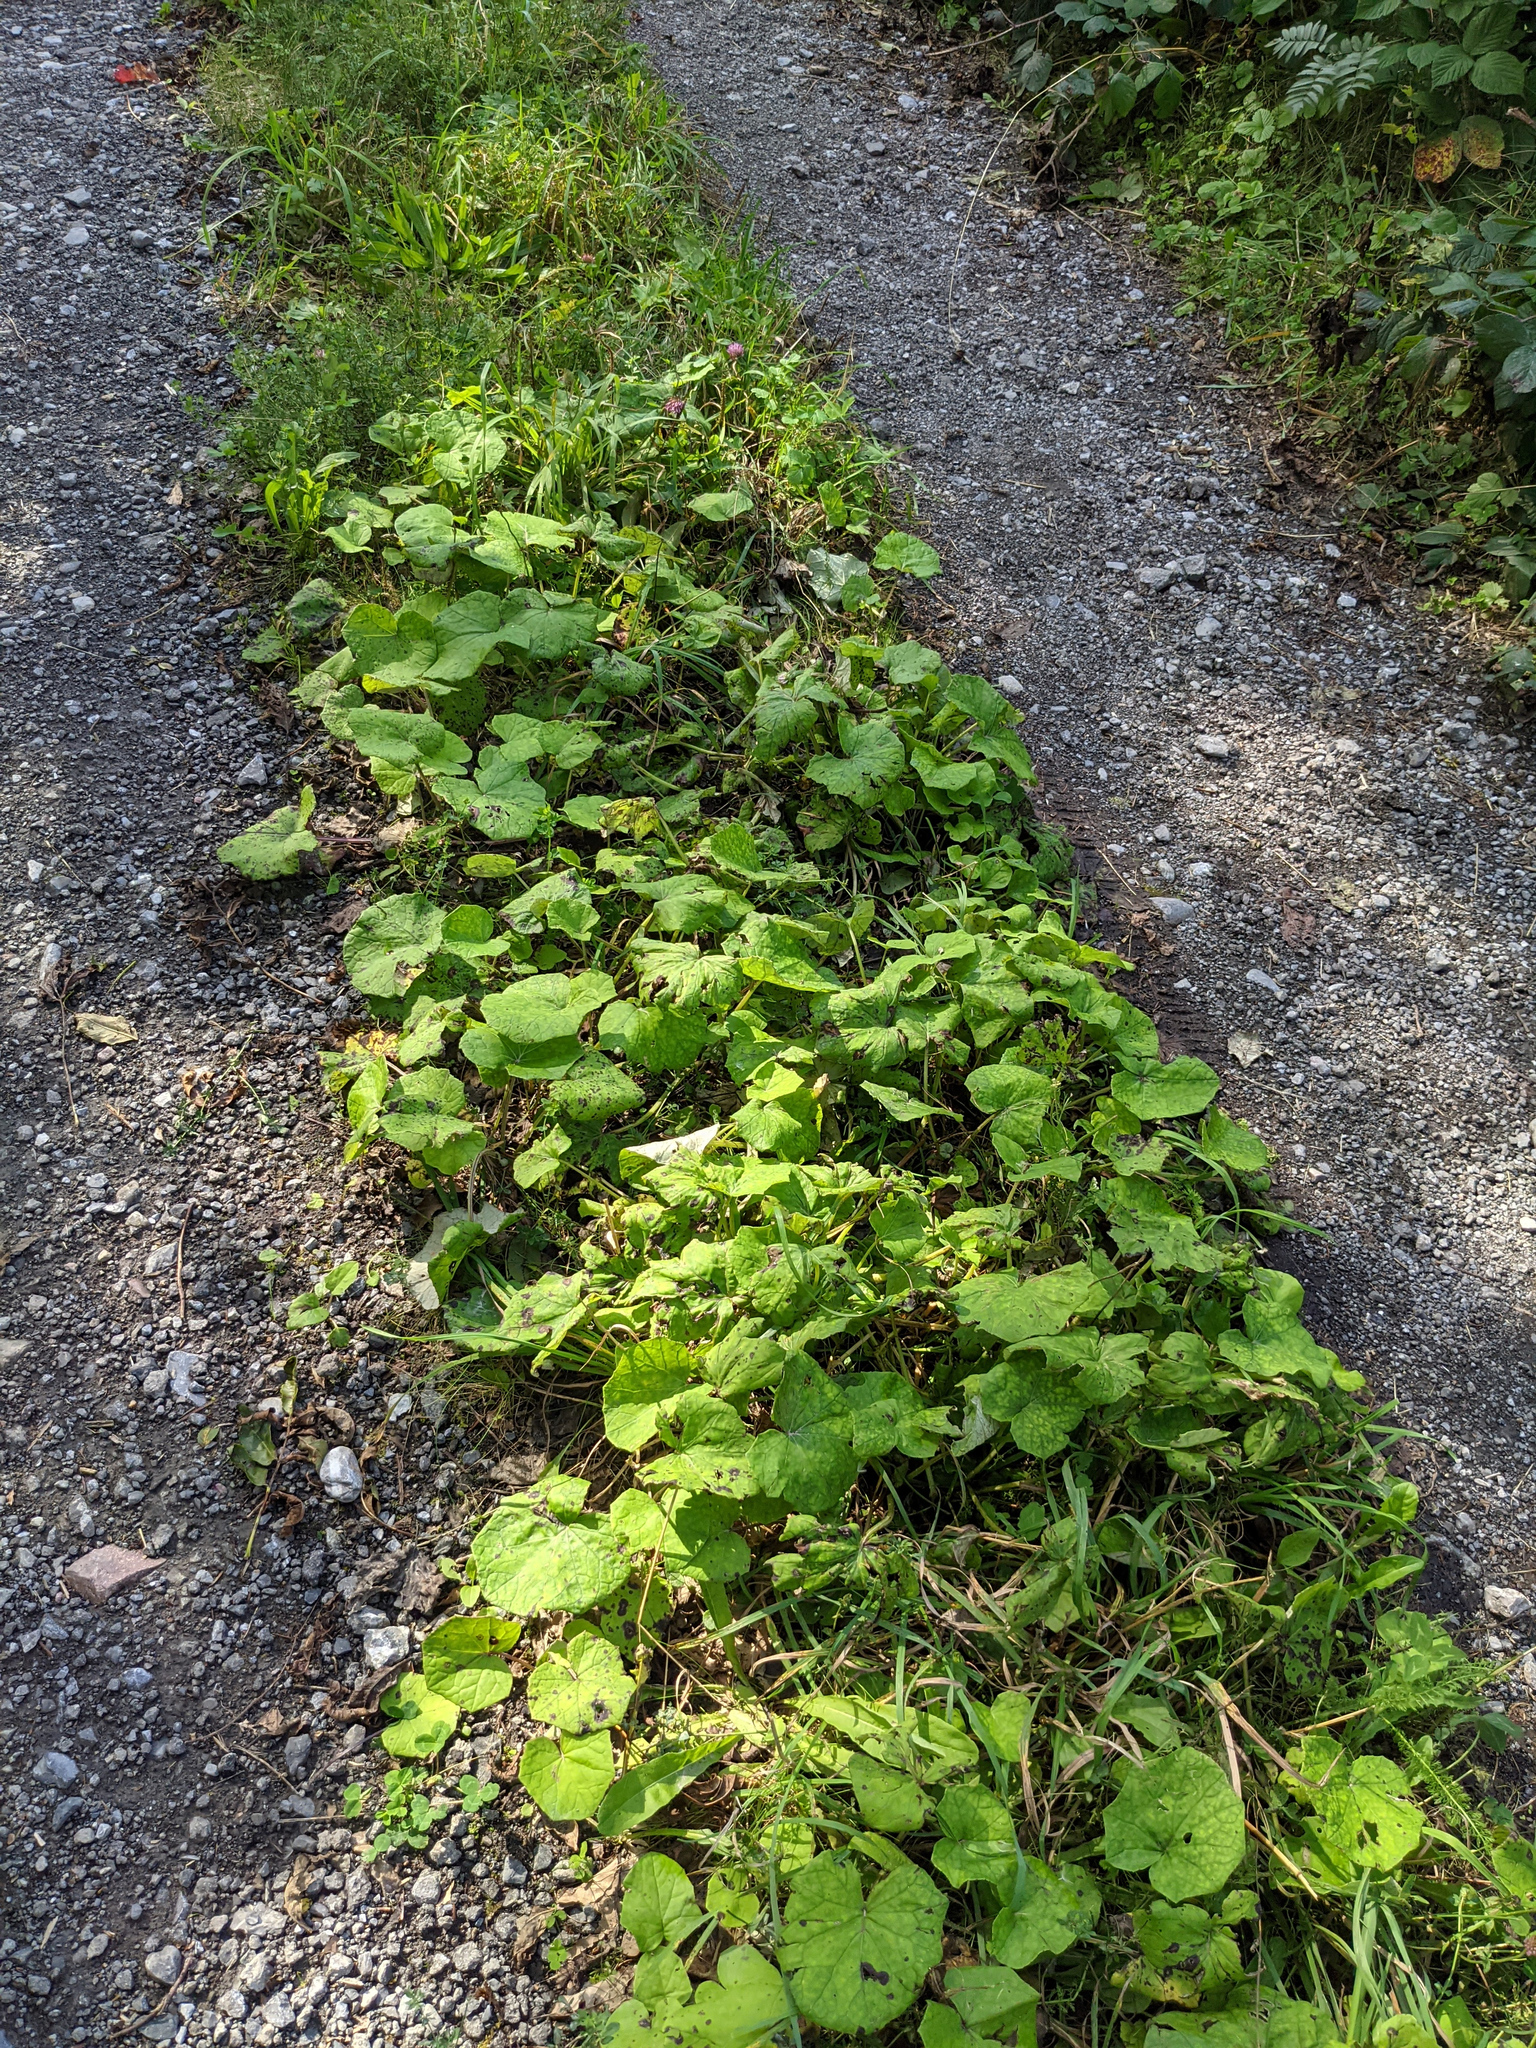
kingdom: Plantae
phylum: Tracheophyta
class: Magnoliopsida
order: Asterales
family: Asteraceae
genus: Tussilago
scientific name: Tussilago farfara
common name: Coltsfoot
